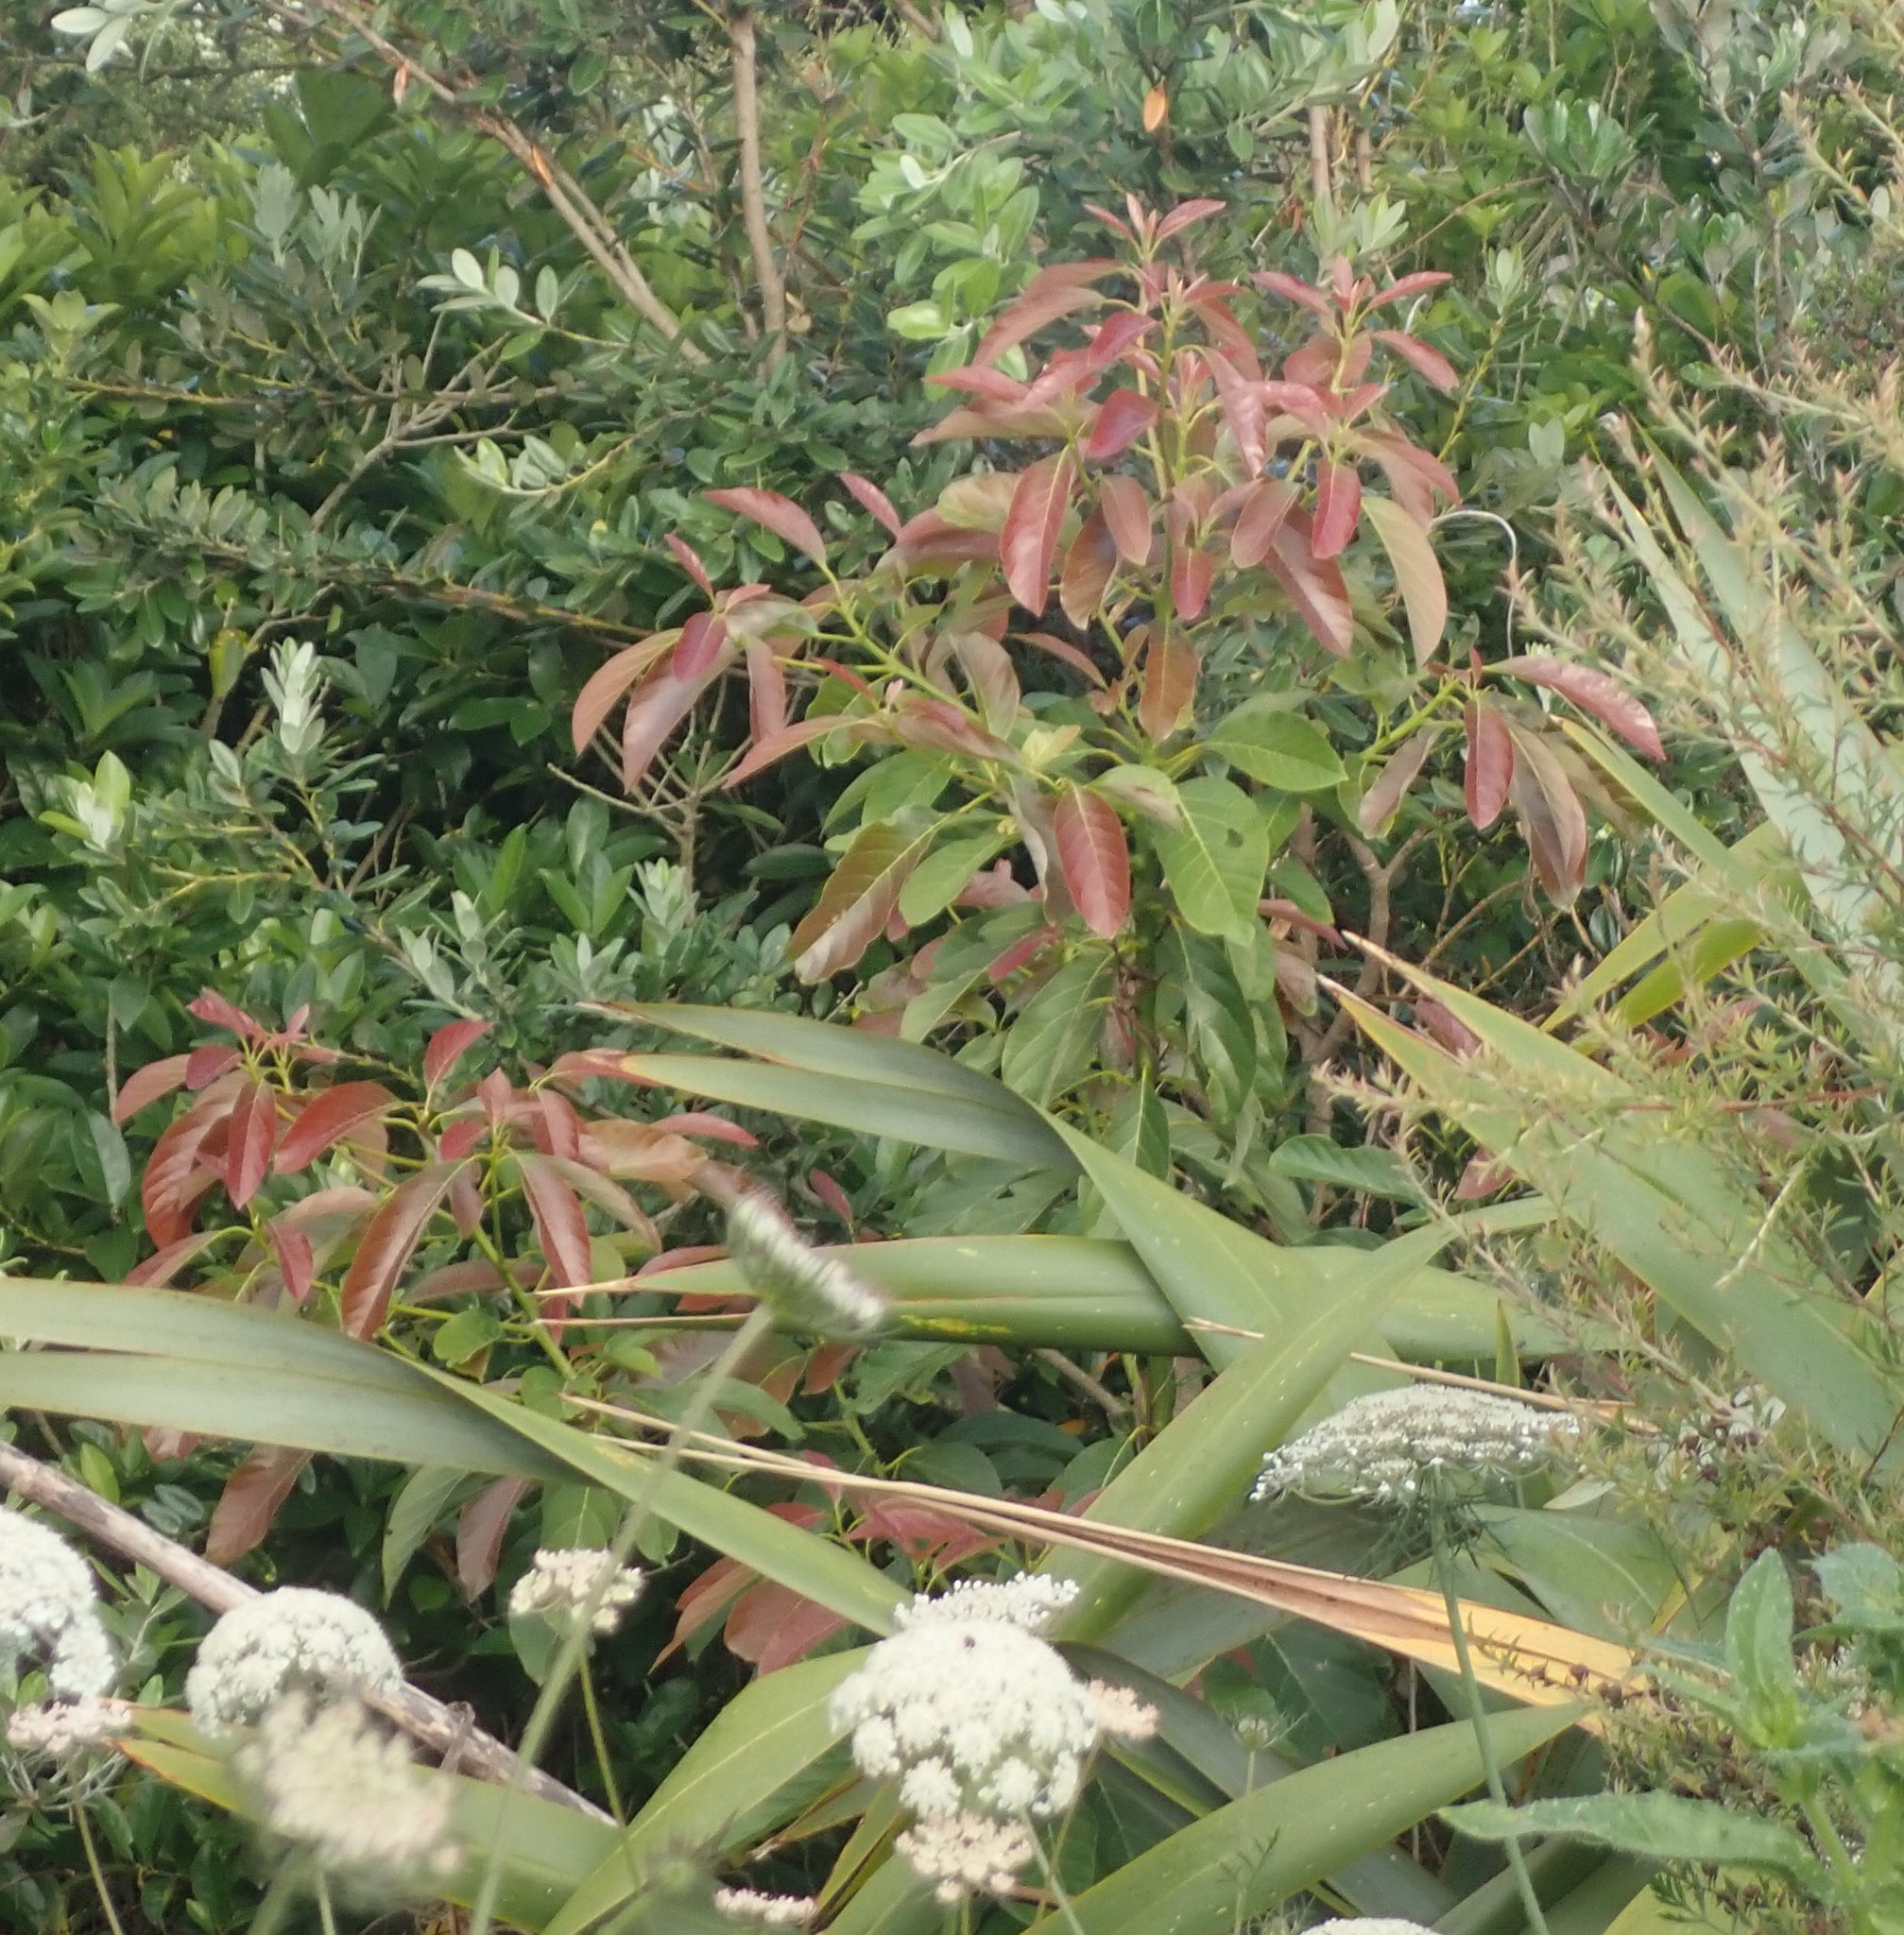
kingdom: Plantae
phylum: Tracheophyta
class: Magnoliopsida
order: Laurales
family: Lauraceae
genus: Persea
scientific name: Persea americana
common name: Avocado
